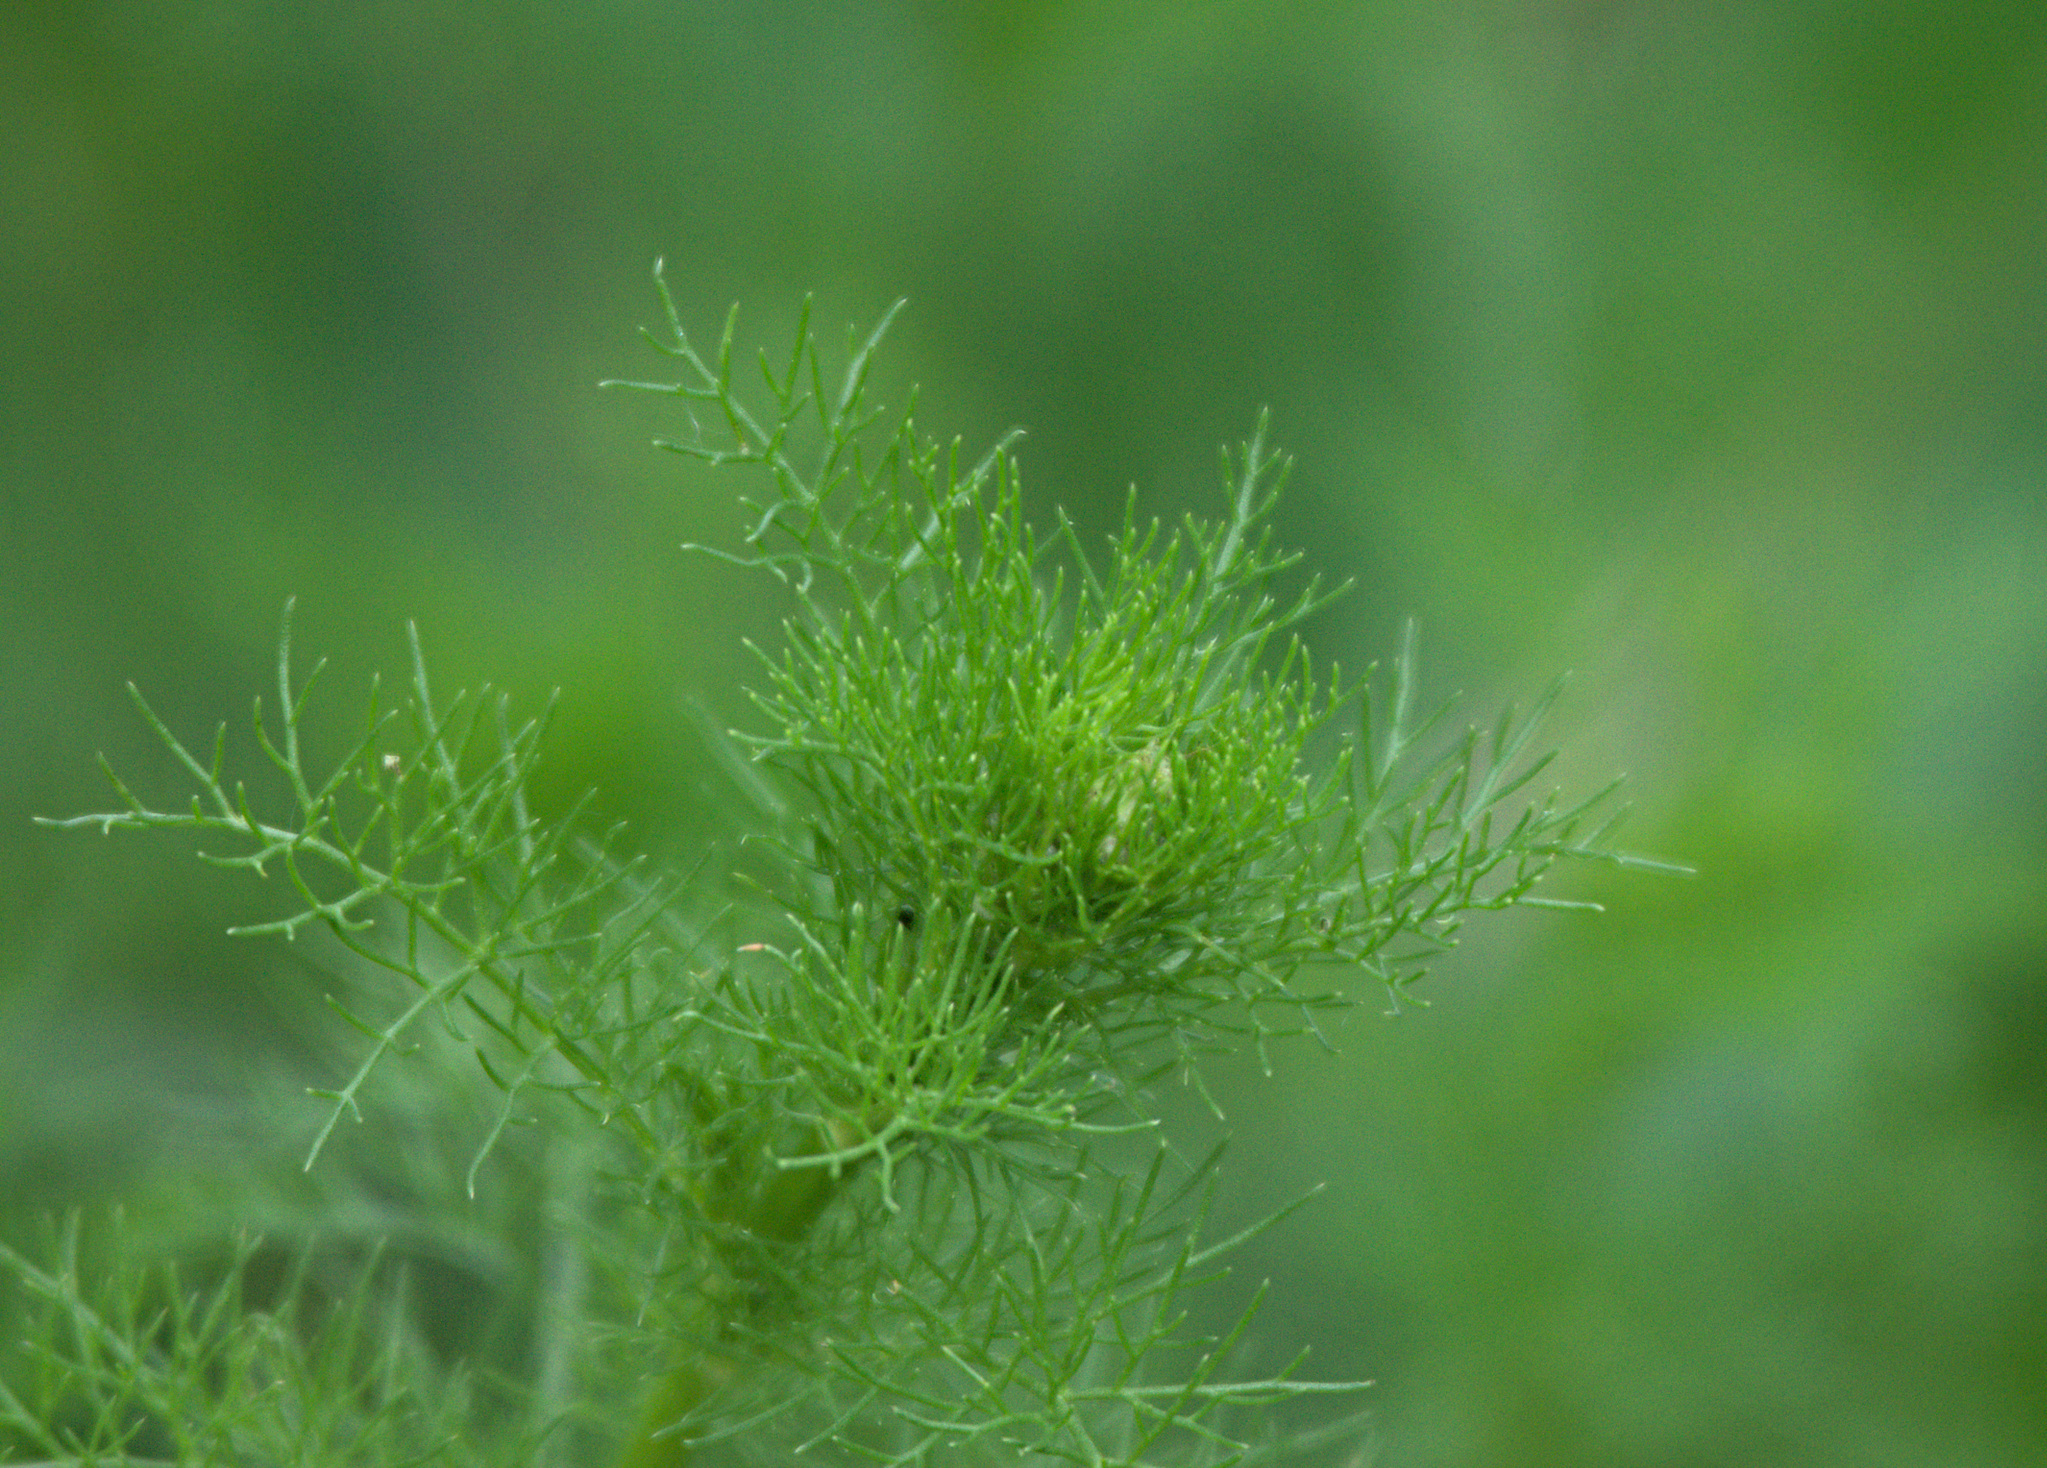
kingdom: Plantae
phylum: Tracheophyta
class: Magnoliopsida
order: Asterales
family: Asteraceae
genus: Tripleurospermum
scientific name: Tripleurospermum inodorum
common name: Scentless mayweed
